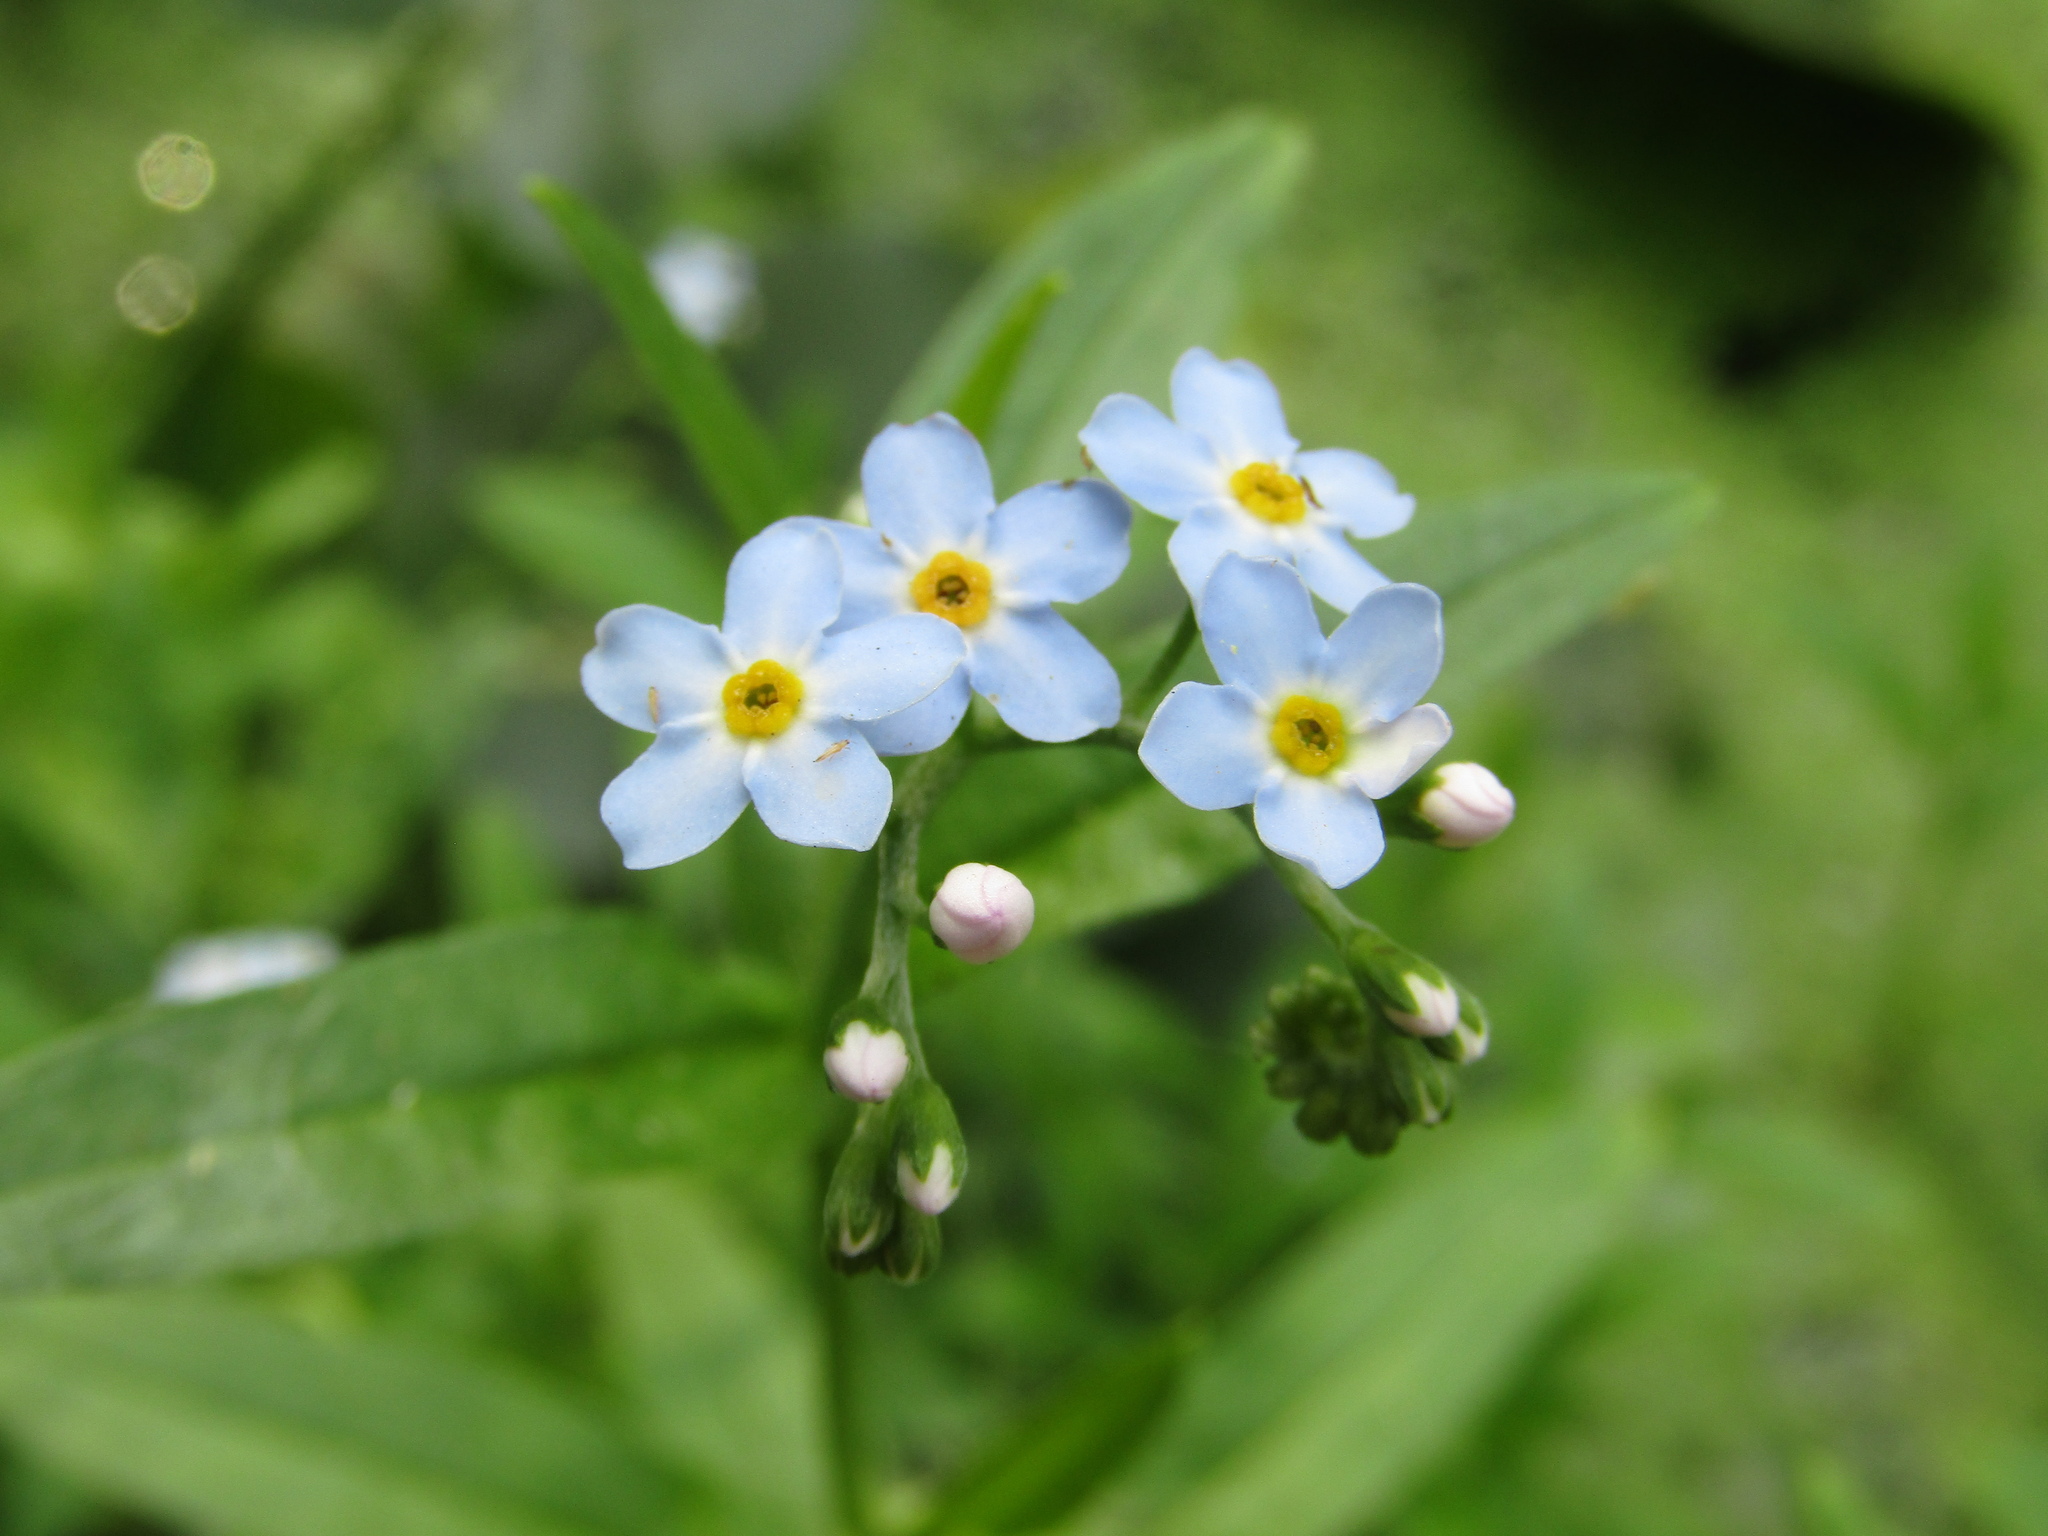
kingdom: Plantae
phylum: Tracheophyta
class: Magnoliopsida
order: Boraginales
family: Boraginaceae
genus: Myosotis
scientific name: Myosotis scorpioides
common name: Water forget-me-not
